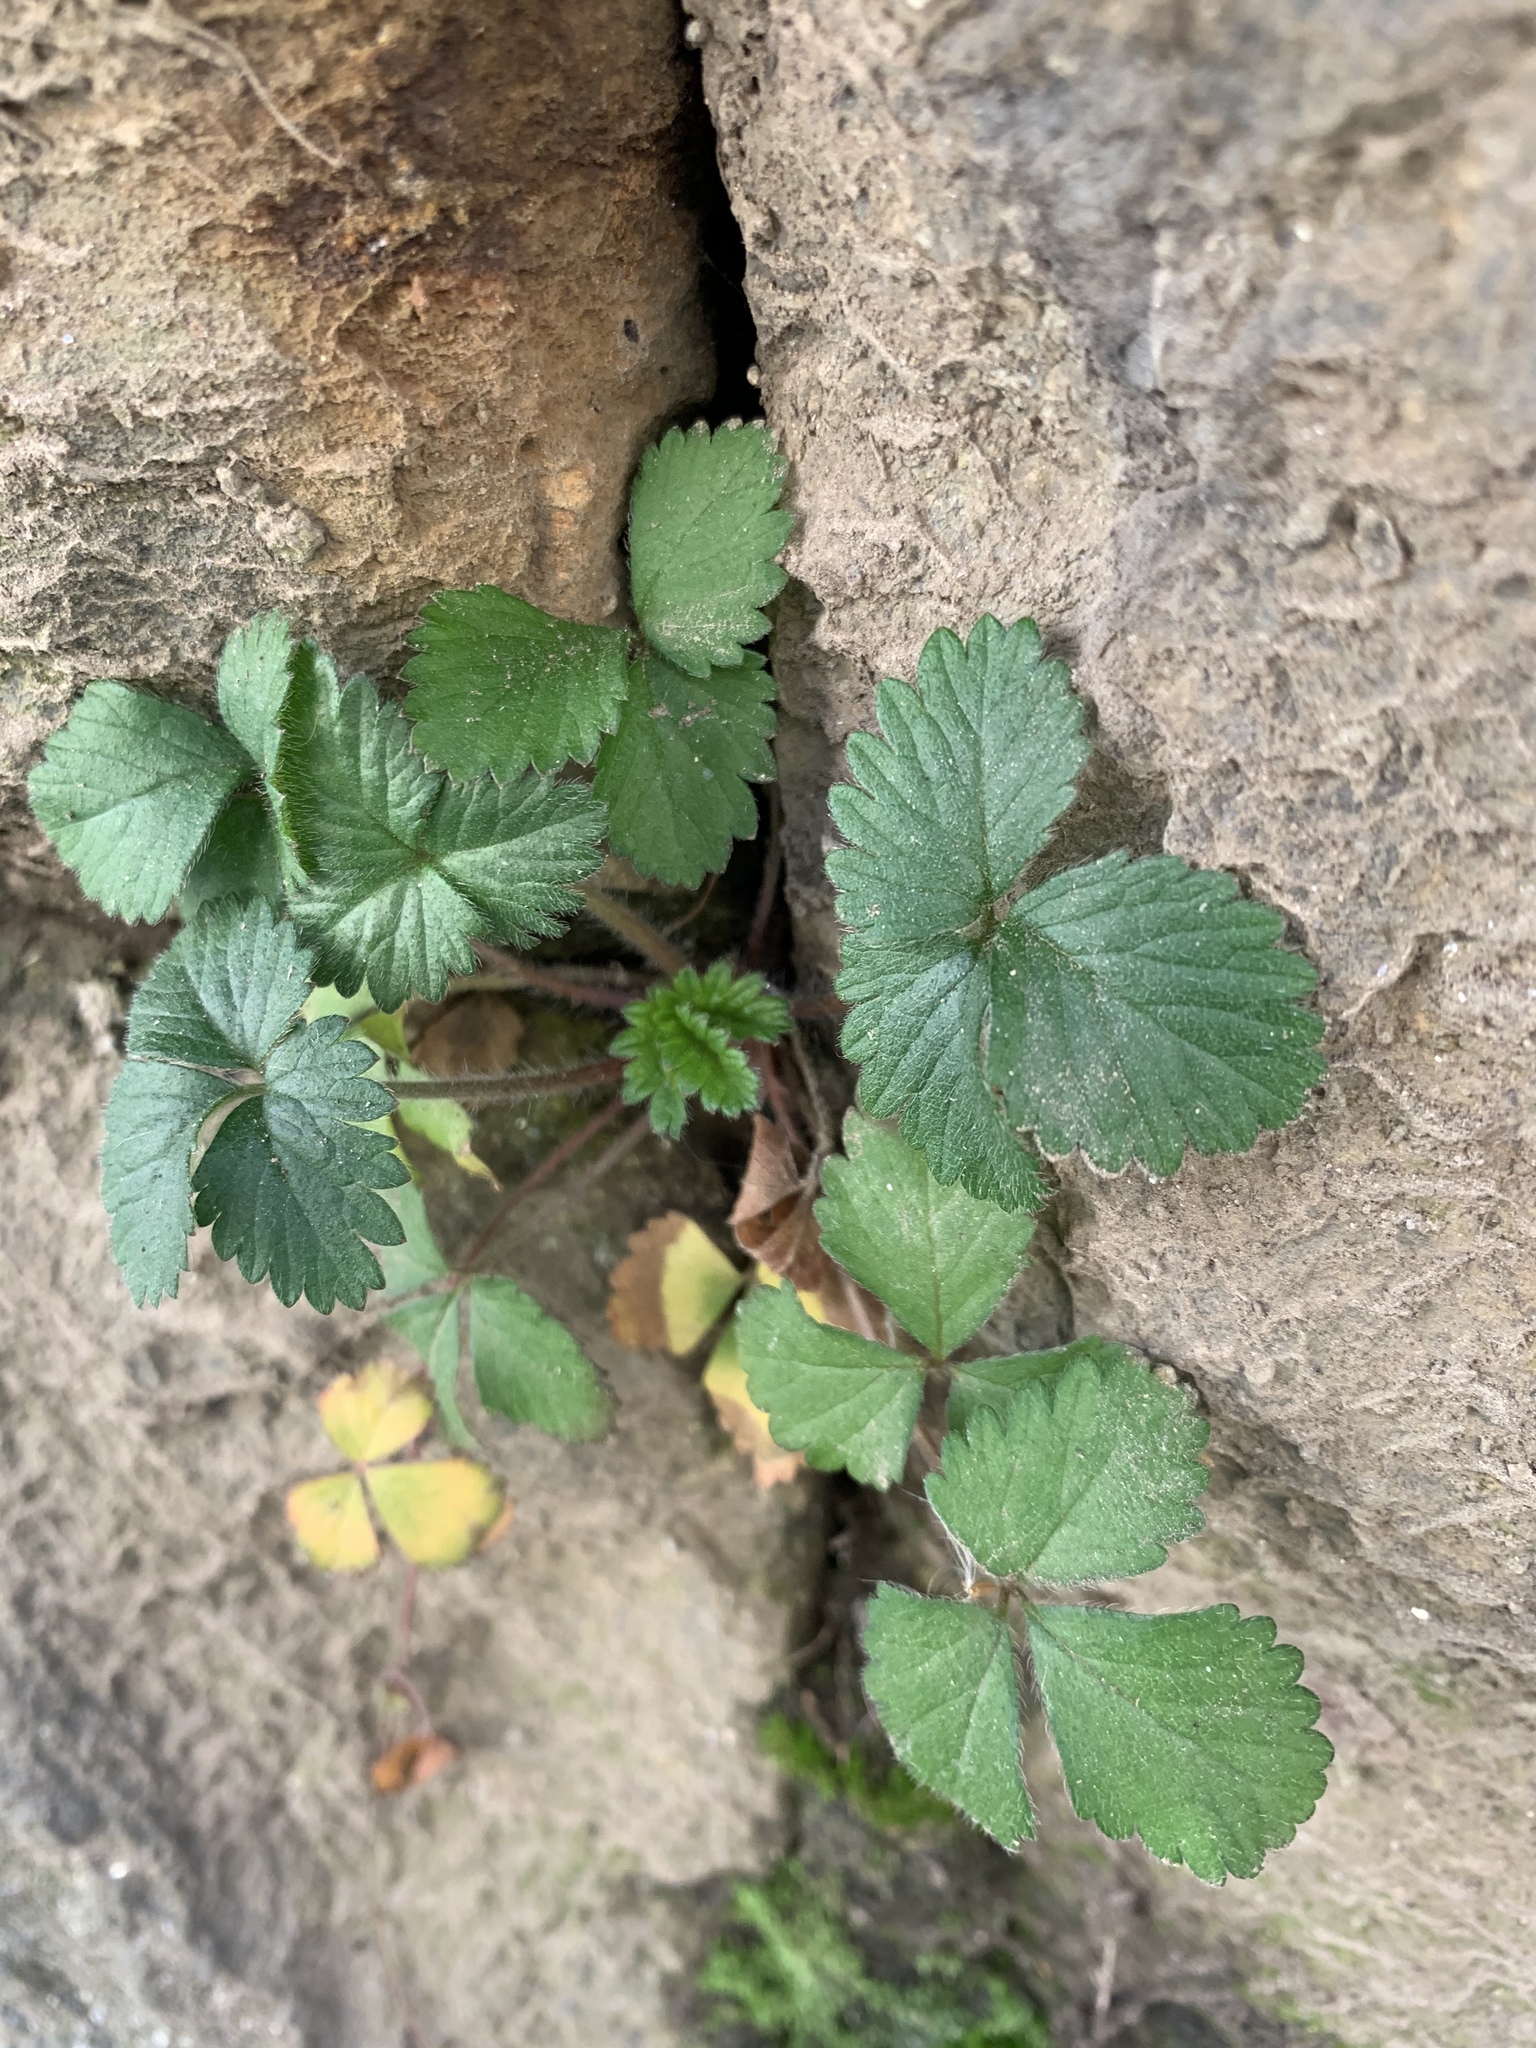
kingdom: Plantae
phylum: Tracheophyta
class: Magnoliopsida
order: Rosales
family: Rosaceae
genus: Potentilla
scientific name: Potentilla indica
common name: Yellow-flowered strawberry
